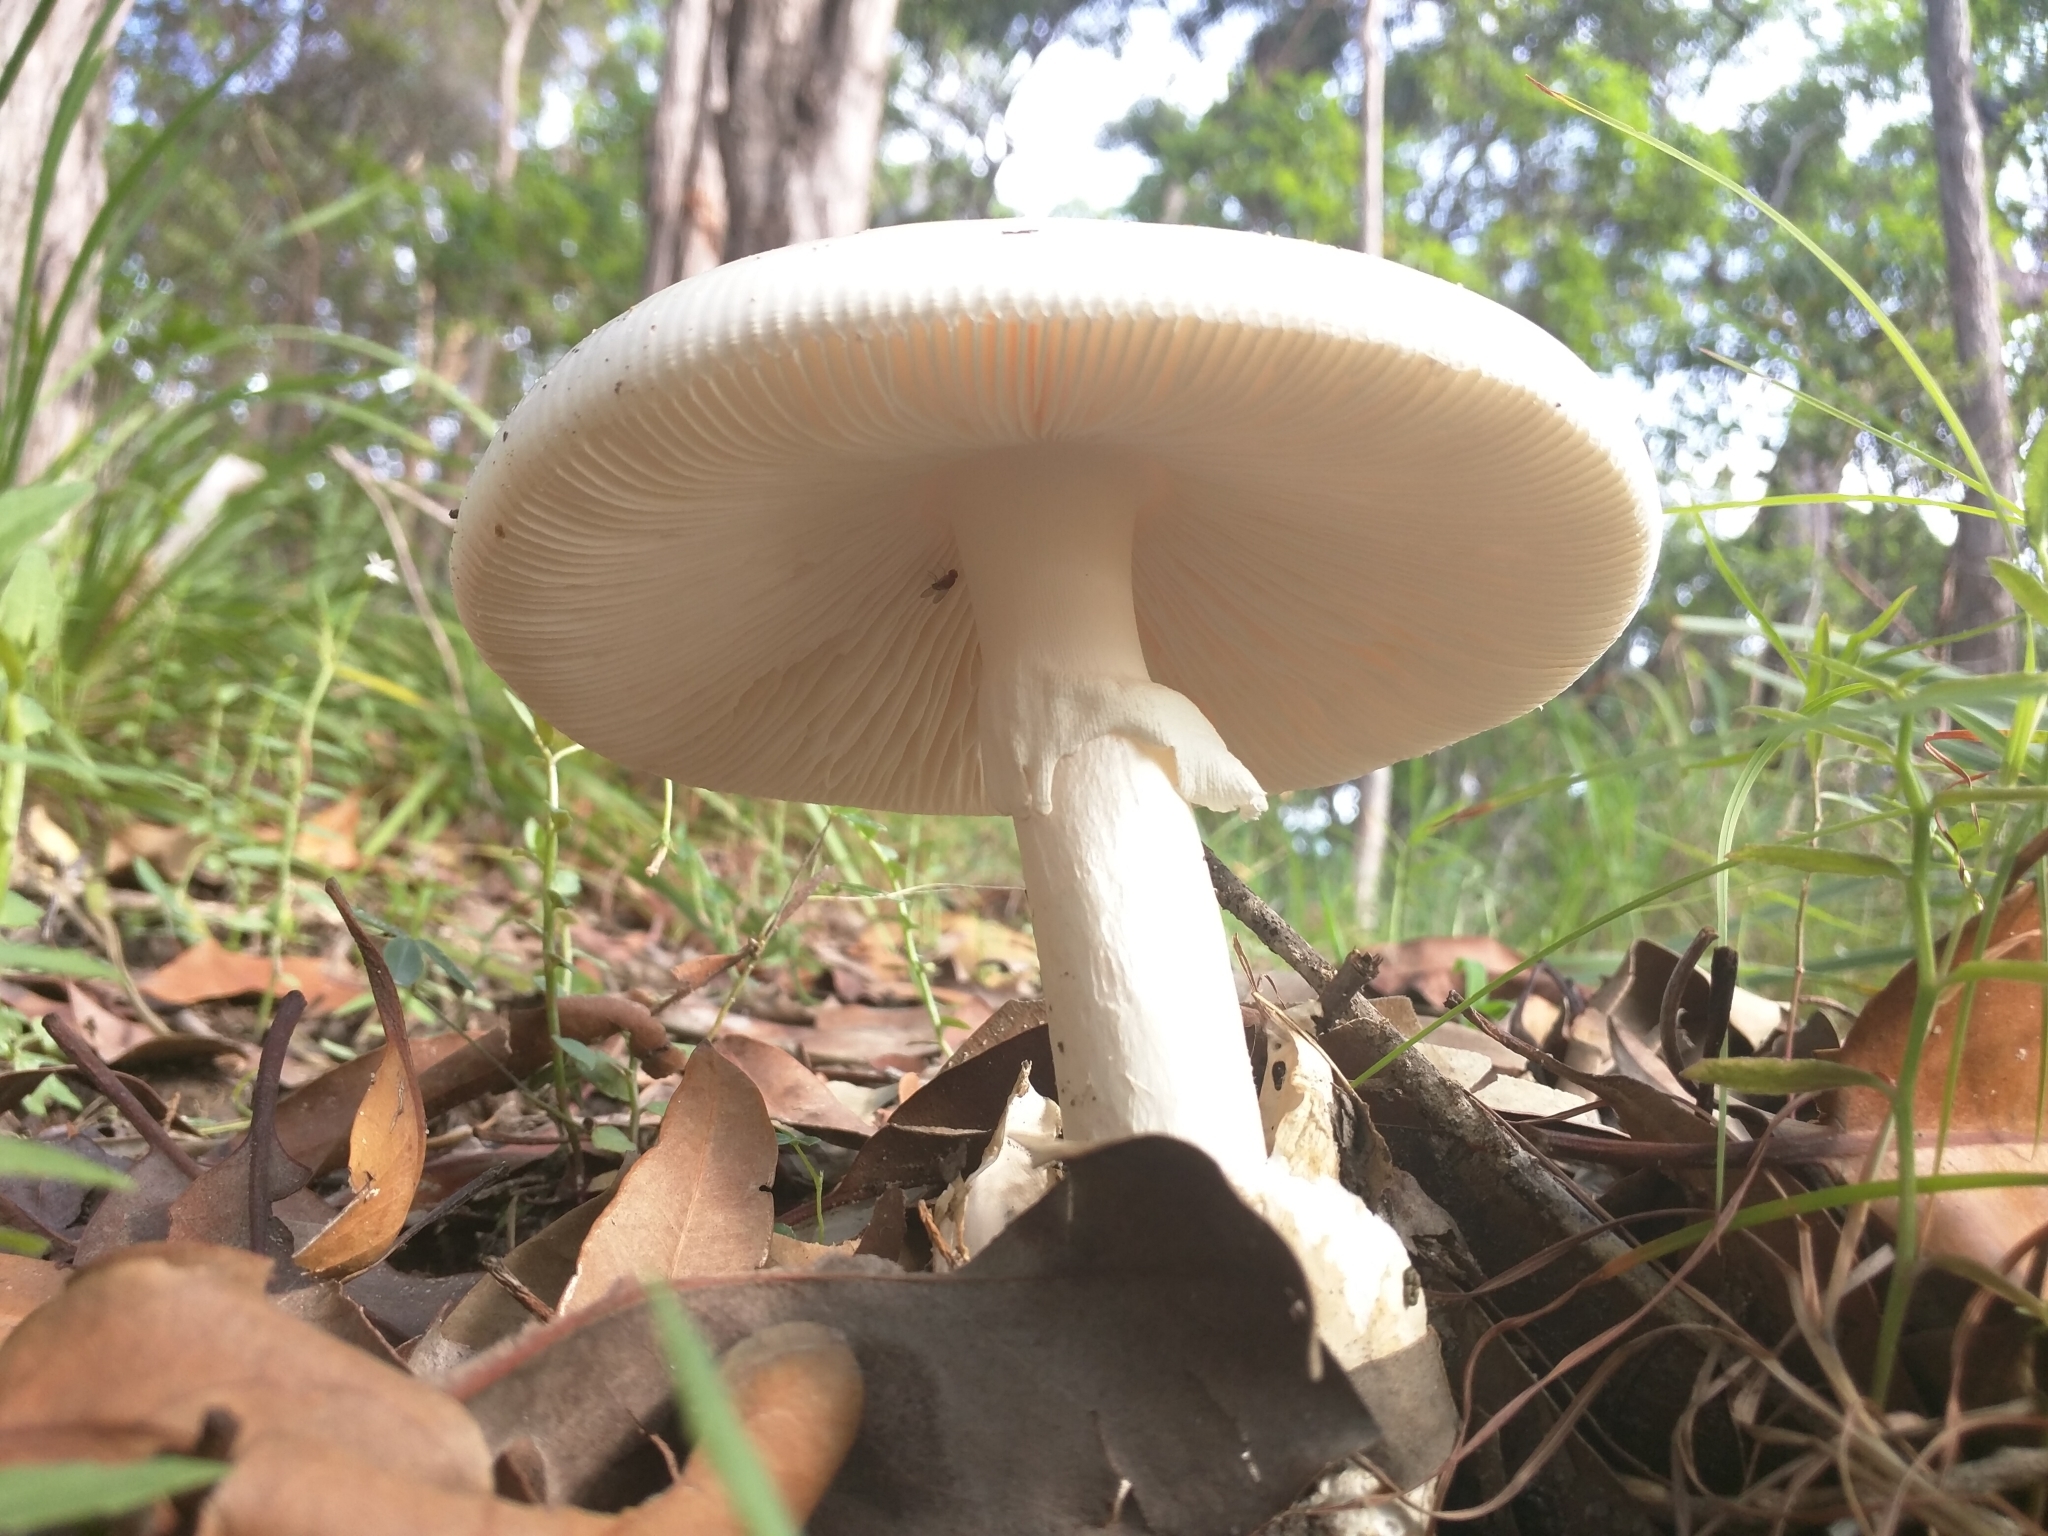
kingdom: Fungi
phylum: Basidiomycota
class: Agaricomycetes
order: Agaricales
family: Amanitaceae
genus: Amanita
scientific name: Amanita egregia
